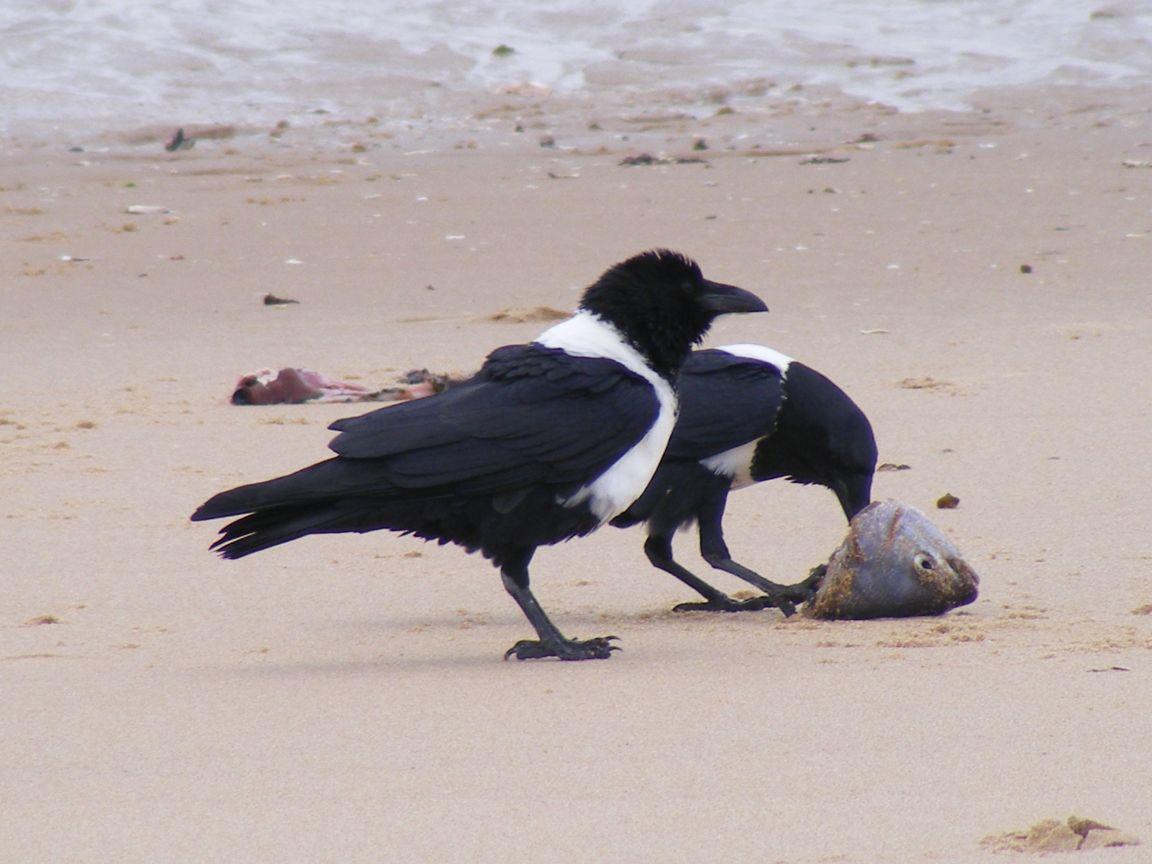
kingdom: Animalia
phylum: Chordata
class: Aves
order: Passeriformes
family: Corvidae
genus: Corvus
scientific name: Corvus albus
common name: Pied crow
